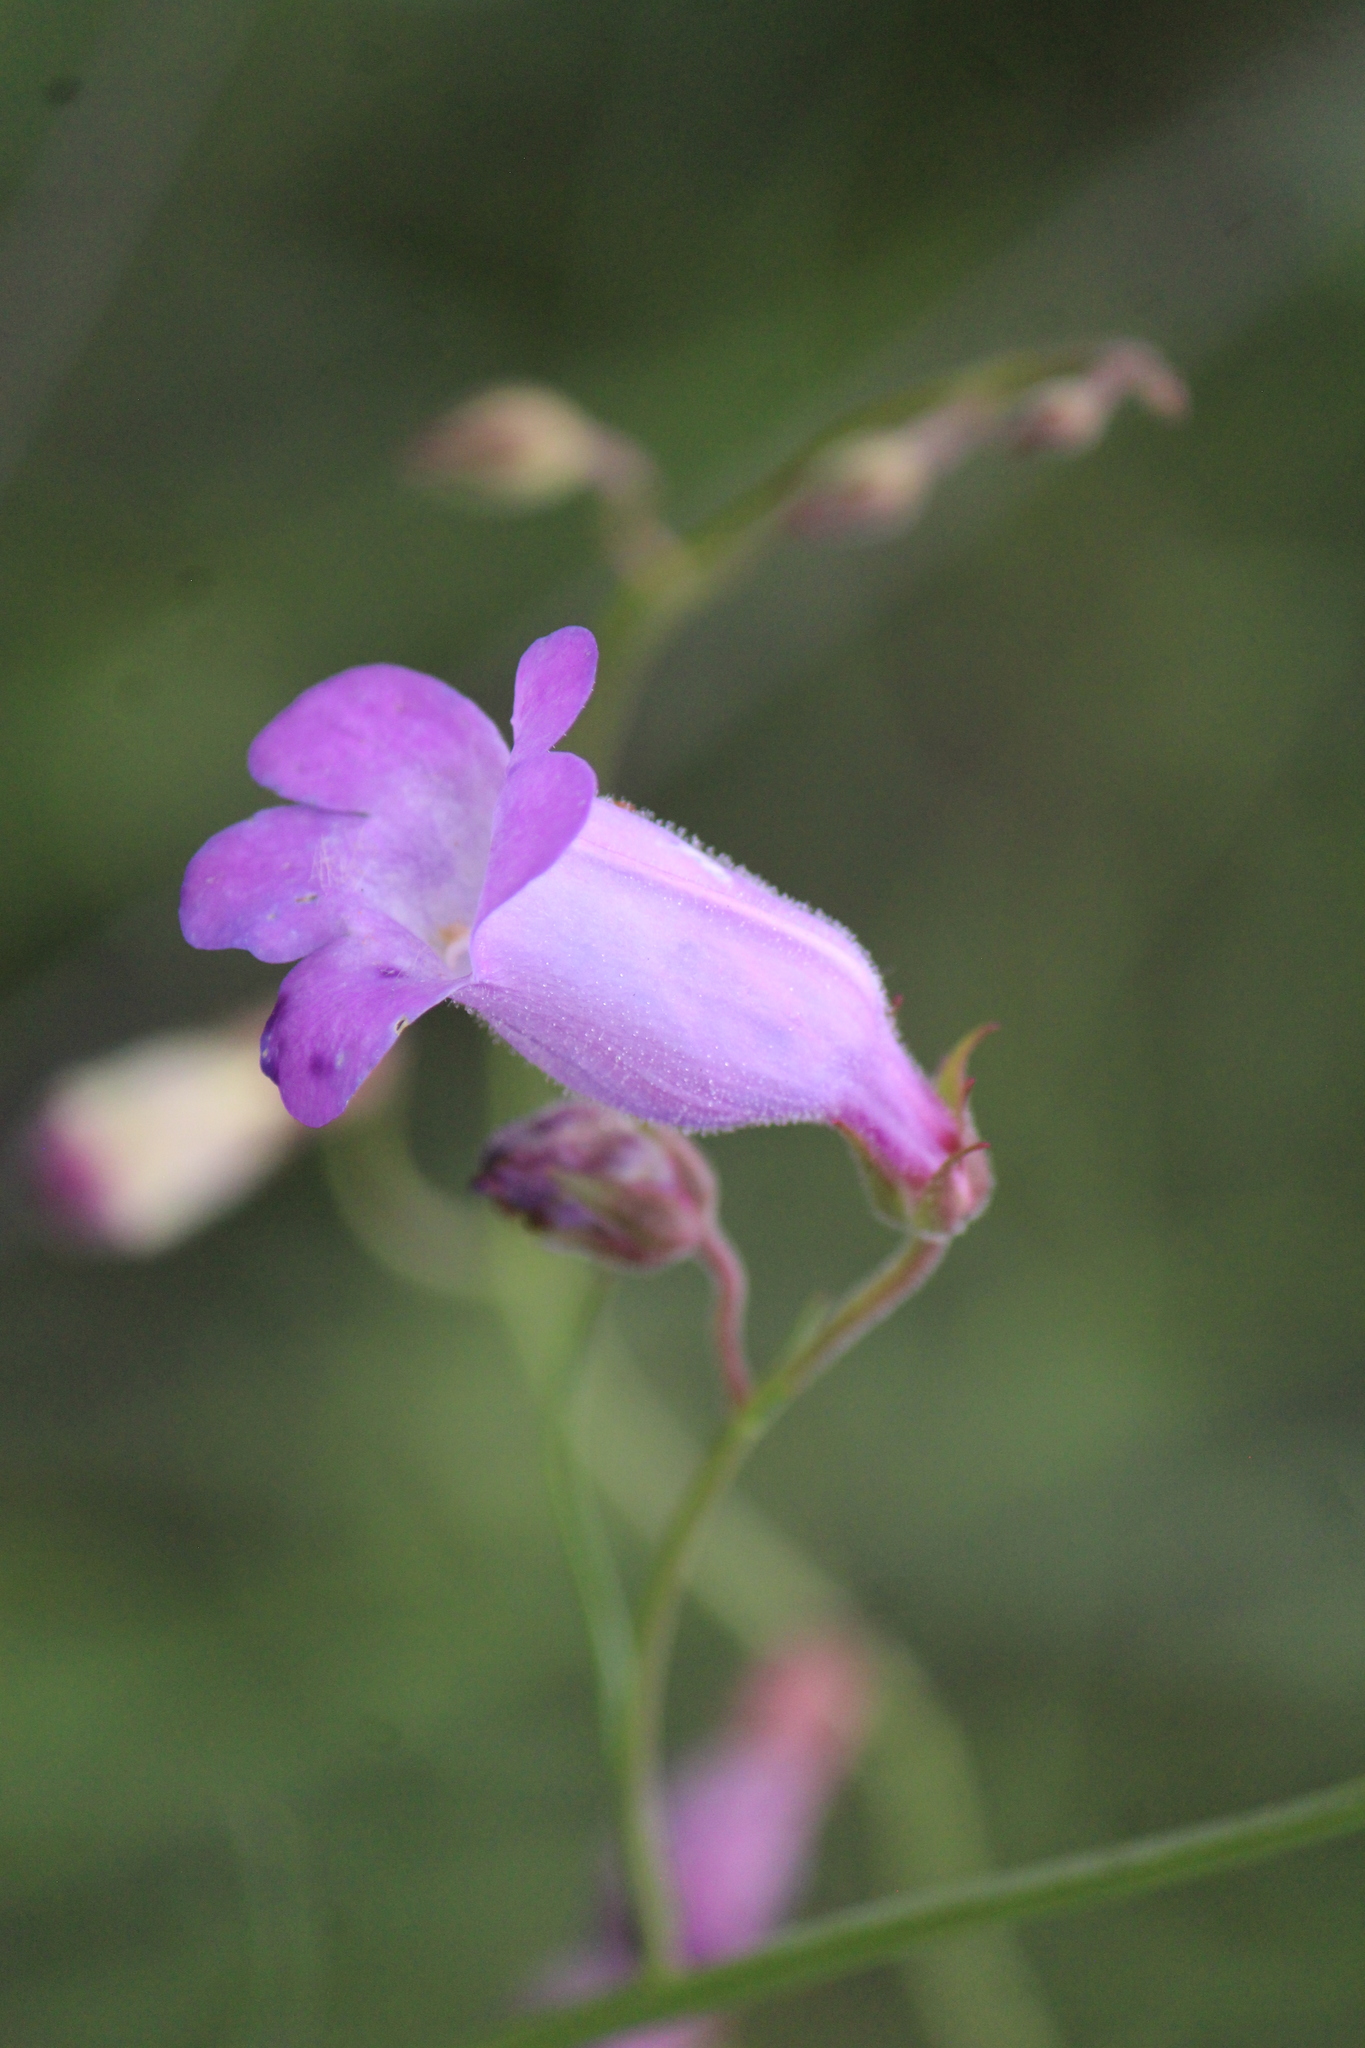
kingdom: Plantae
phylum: Tracheophyta
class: Magnoliopsida
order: Lamiales
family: Plantaginaceae
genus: Penstemon
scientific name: Penstemon amphorellae
